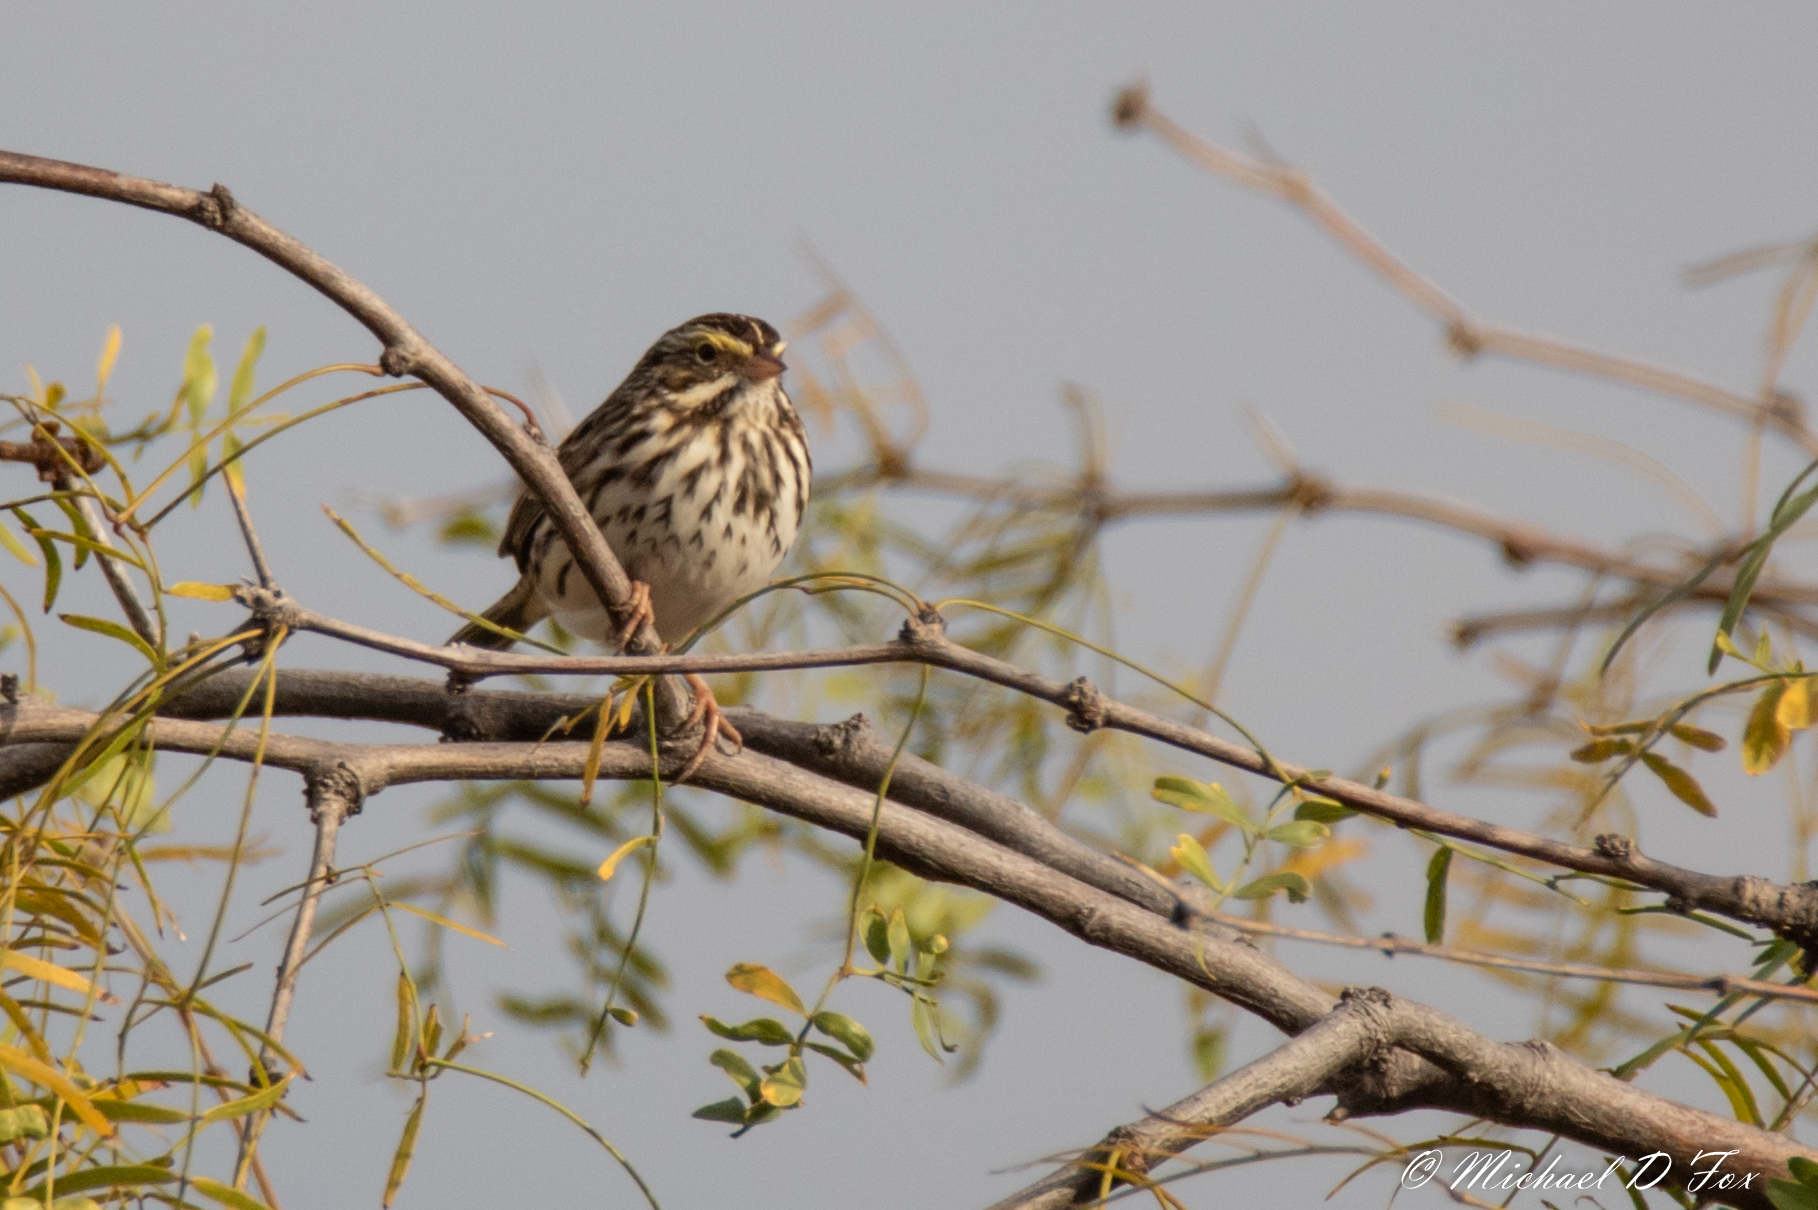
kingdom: Animalia
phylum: Chordata
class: Aves
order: Passeriformes
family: Passerellidae
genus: Passerculus
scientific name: Passerculus sandwichensis
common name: Savannah sparrow
